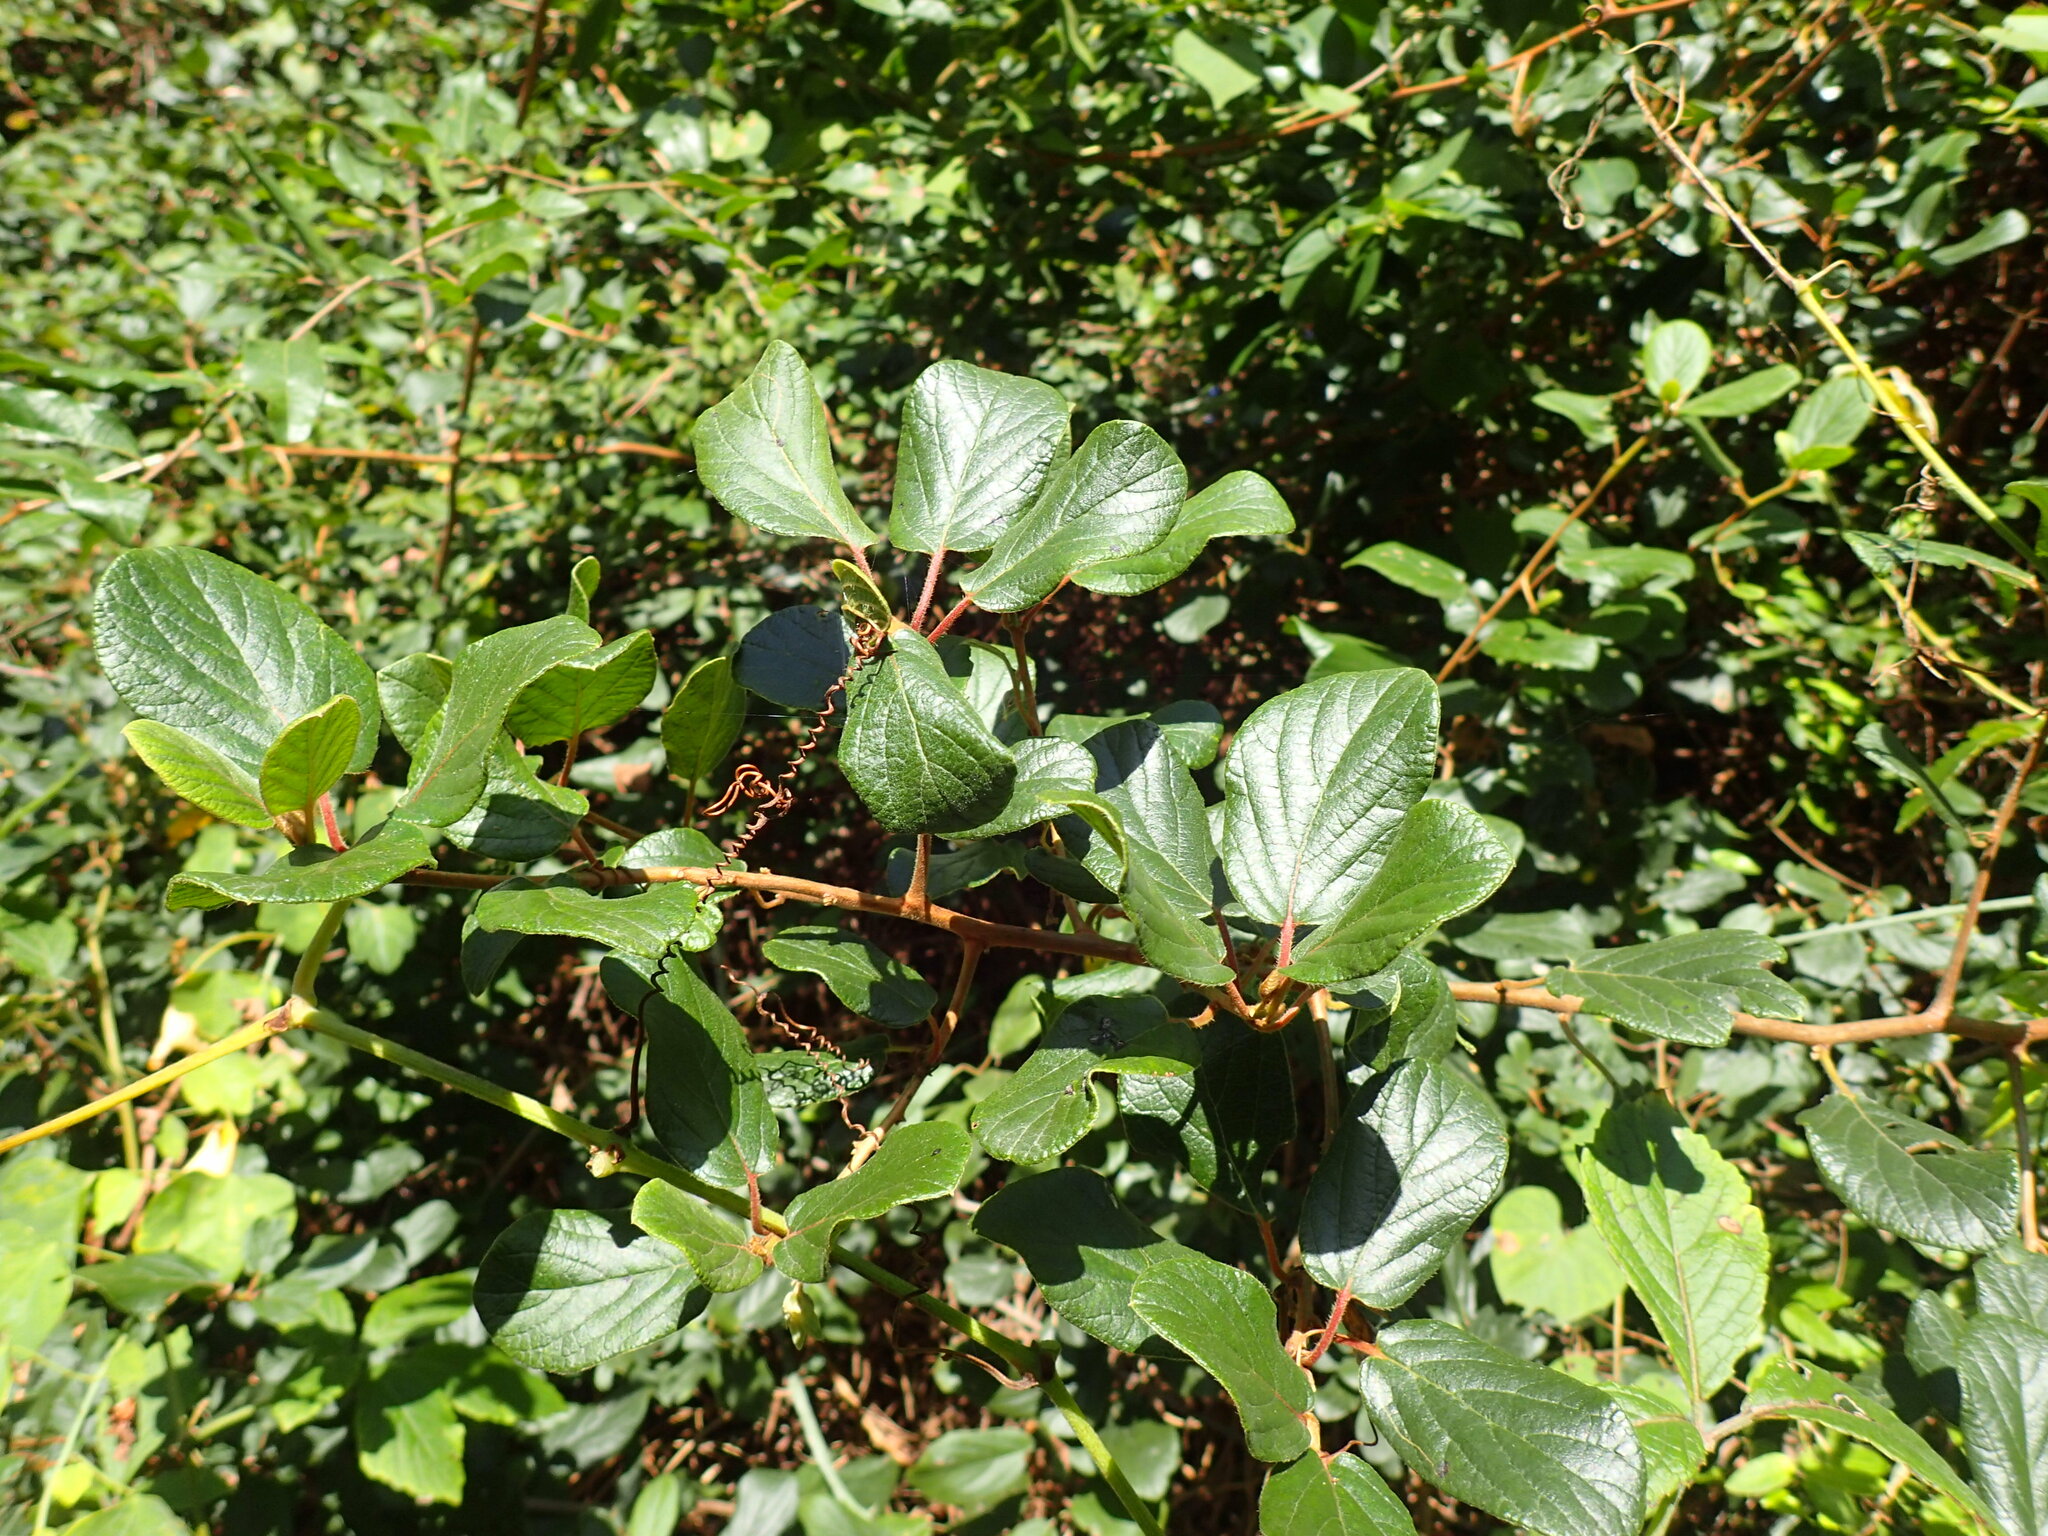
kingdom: Plantae
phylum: Tracheophyta
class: Magnoliopsida
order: Ericales
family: Ebenaceae
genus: Diospyros
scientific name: Diospyros villosa
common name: Hairy star-apple
